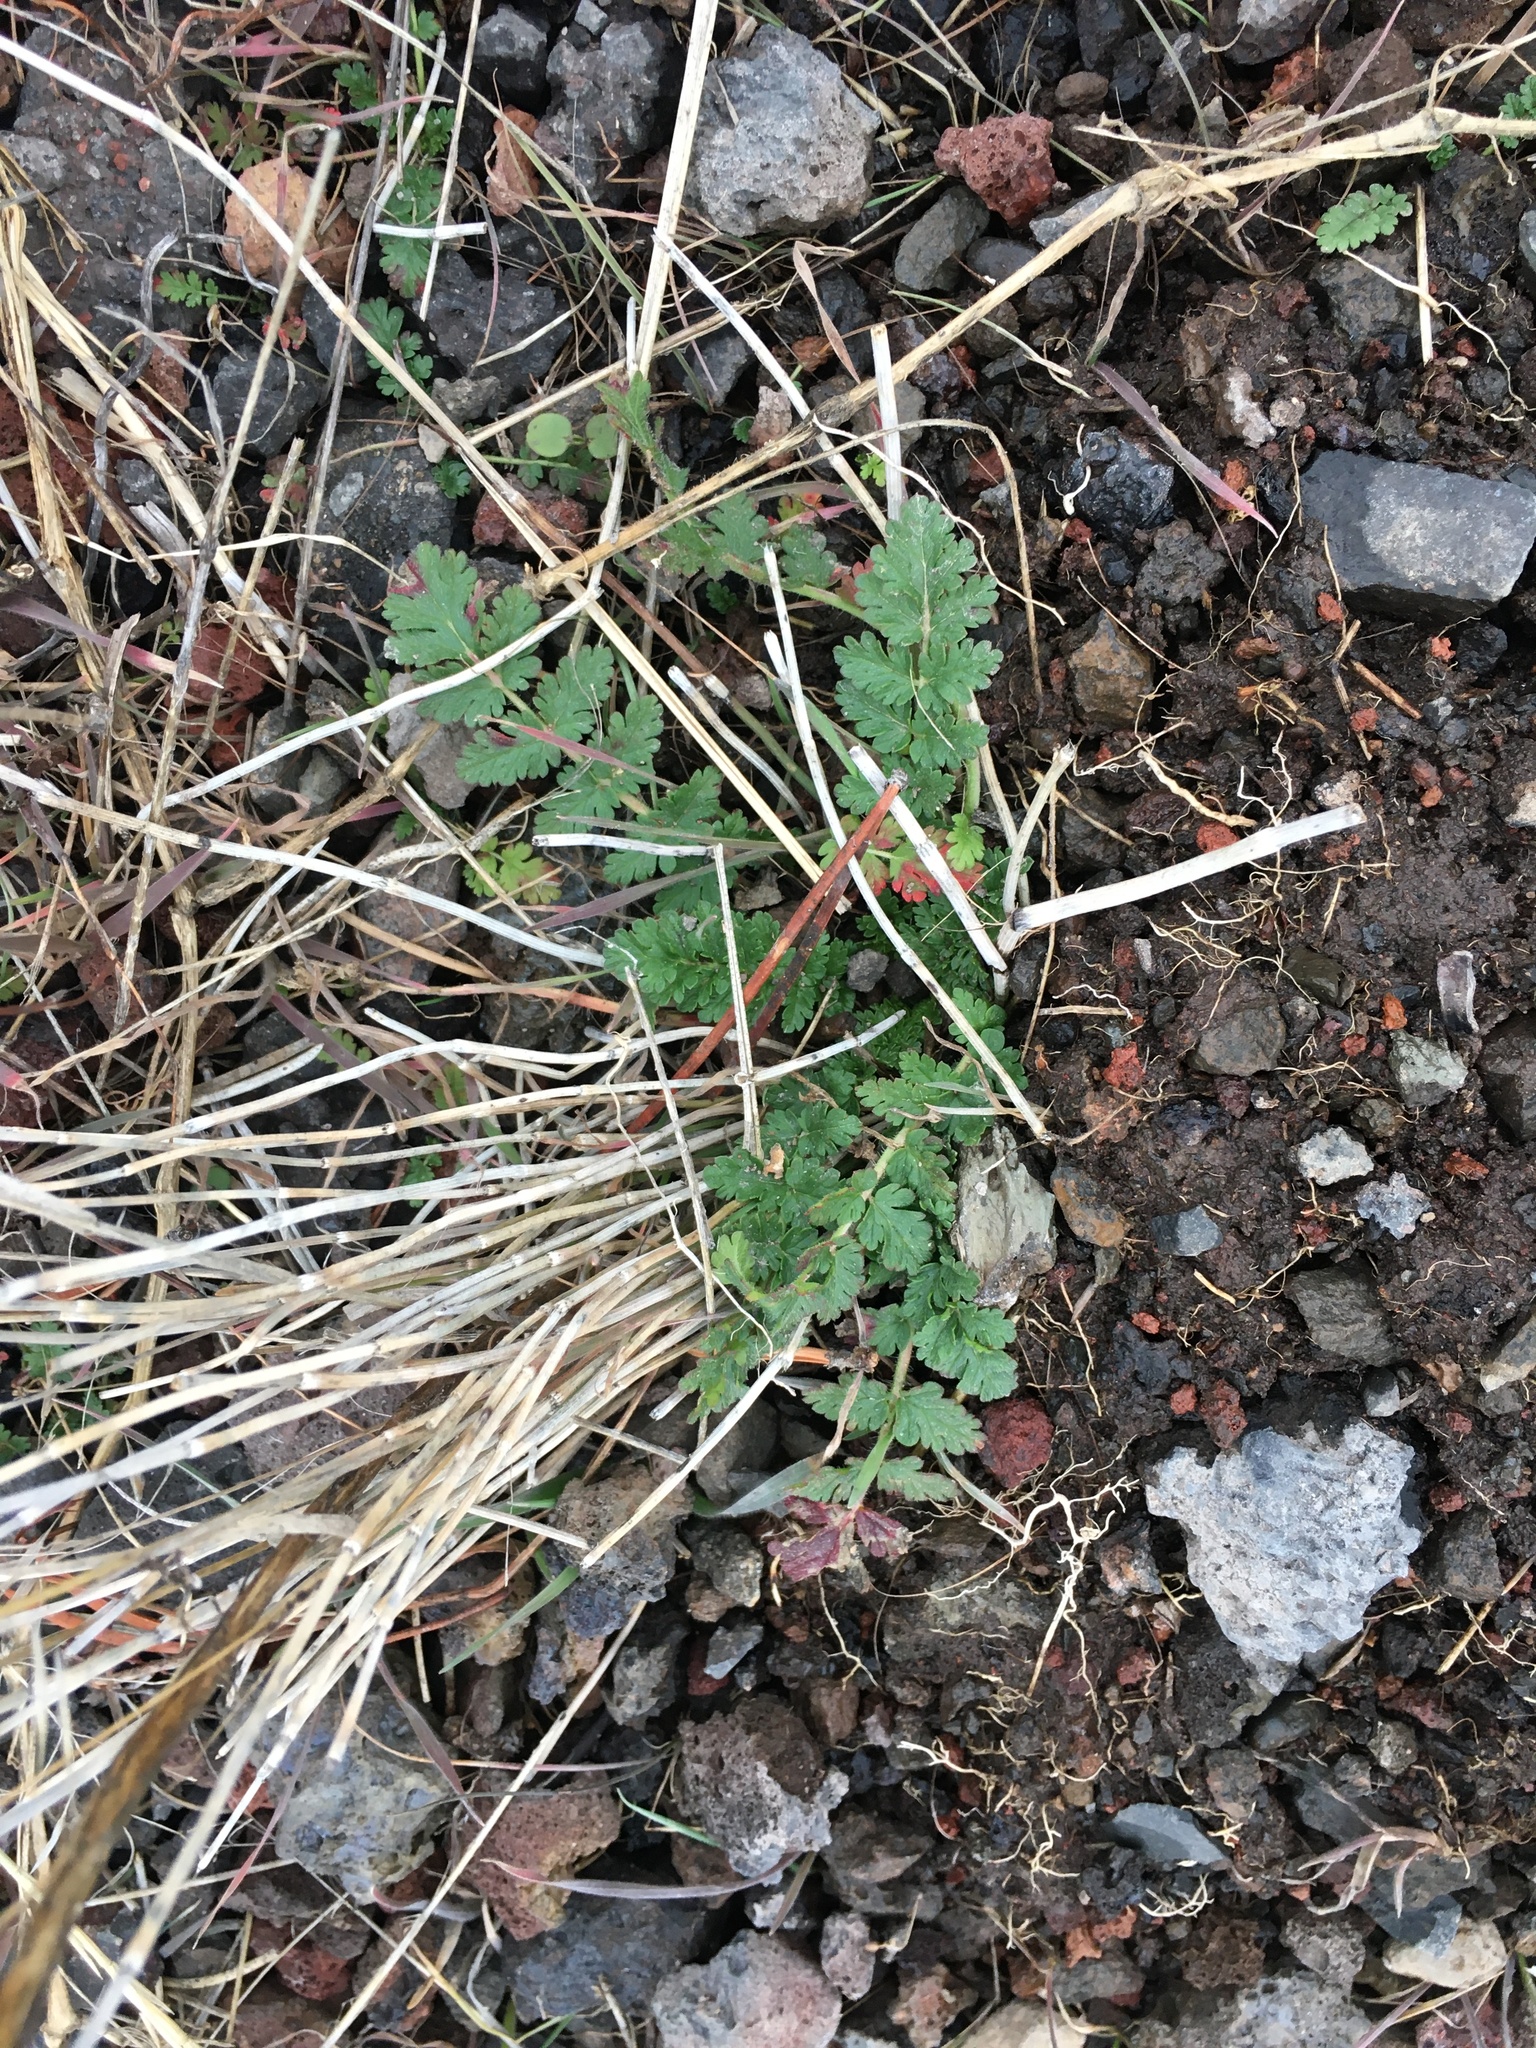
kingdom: Plantae
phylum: Tracheophyta
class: Magnoliopsida
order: Geraniales
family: Geraniaceae
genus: Erodium
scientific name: Erodium cicutarium
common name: Common stork's-bill
